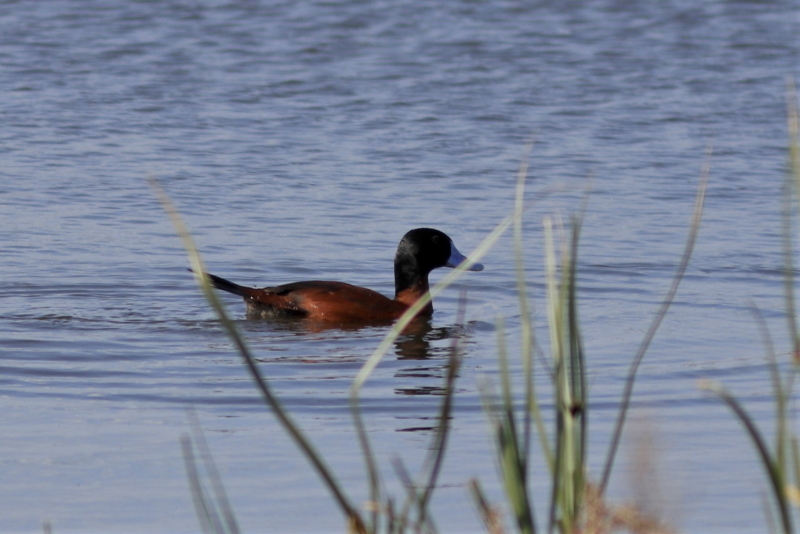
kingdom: Animalia
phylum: Chordata
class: Aves
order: Anseriformes
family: Anatidae
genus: Oxyura
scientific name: Oxyura maccoa
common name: Maccoa duck
